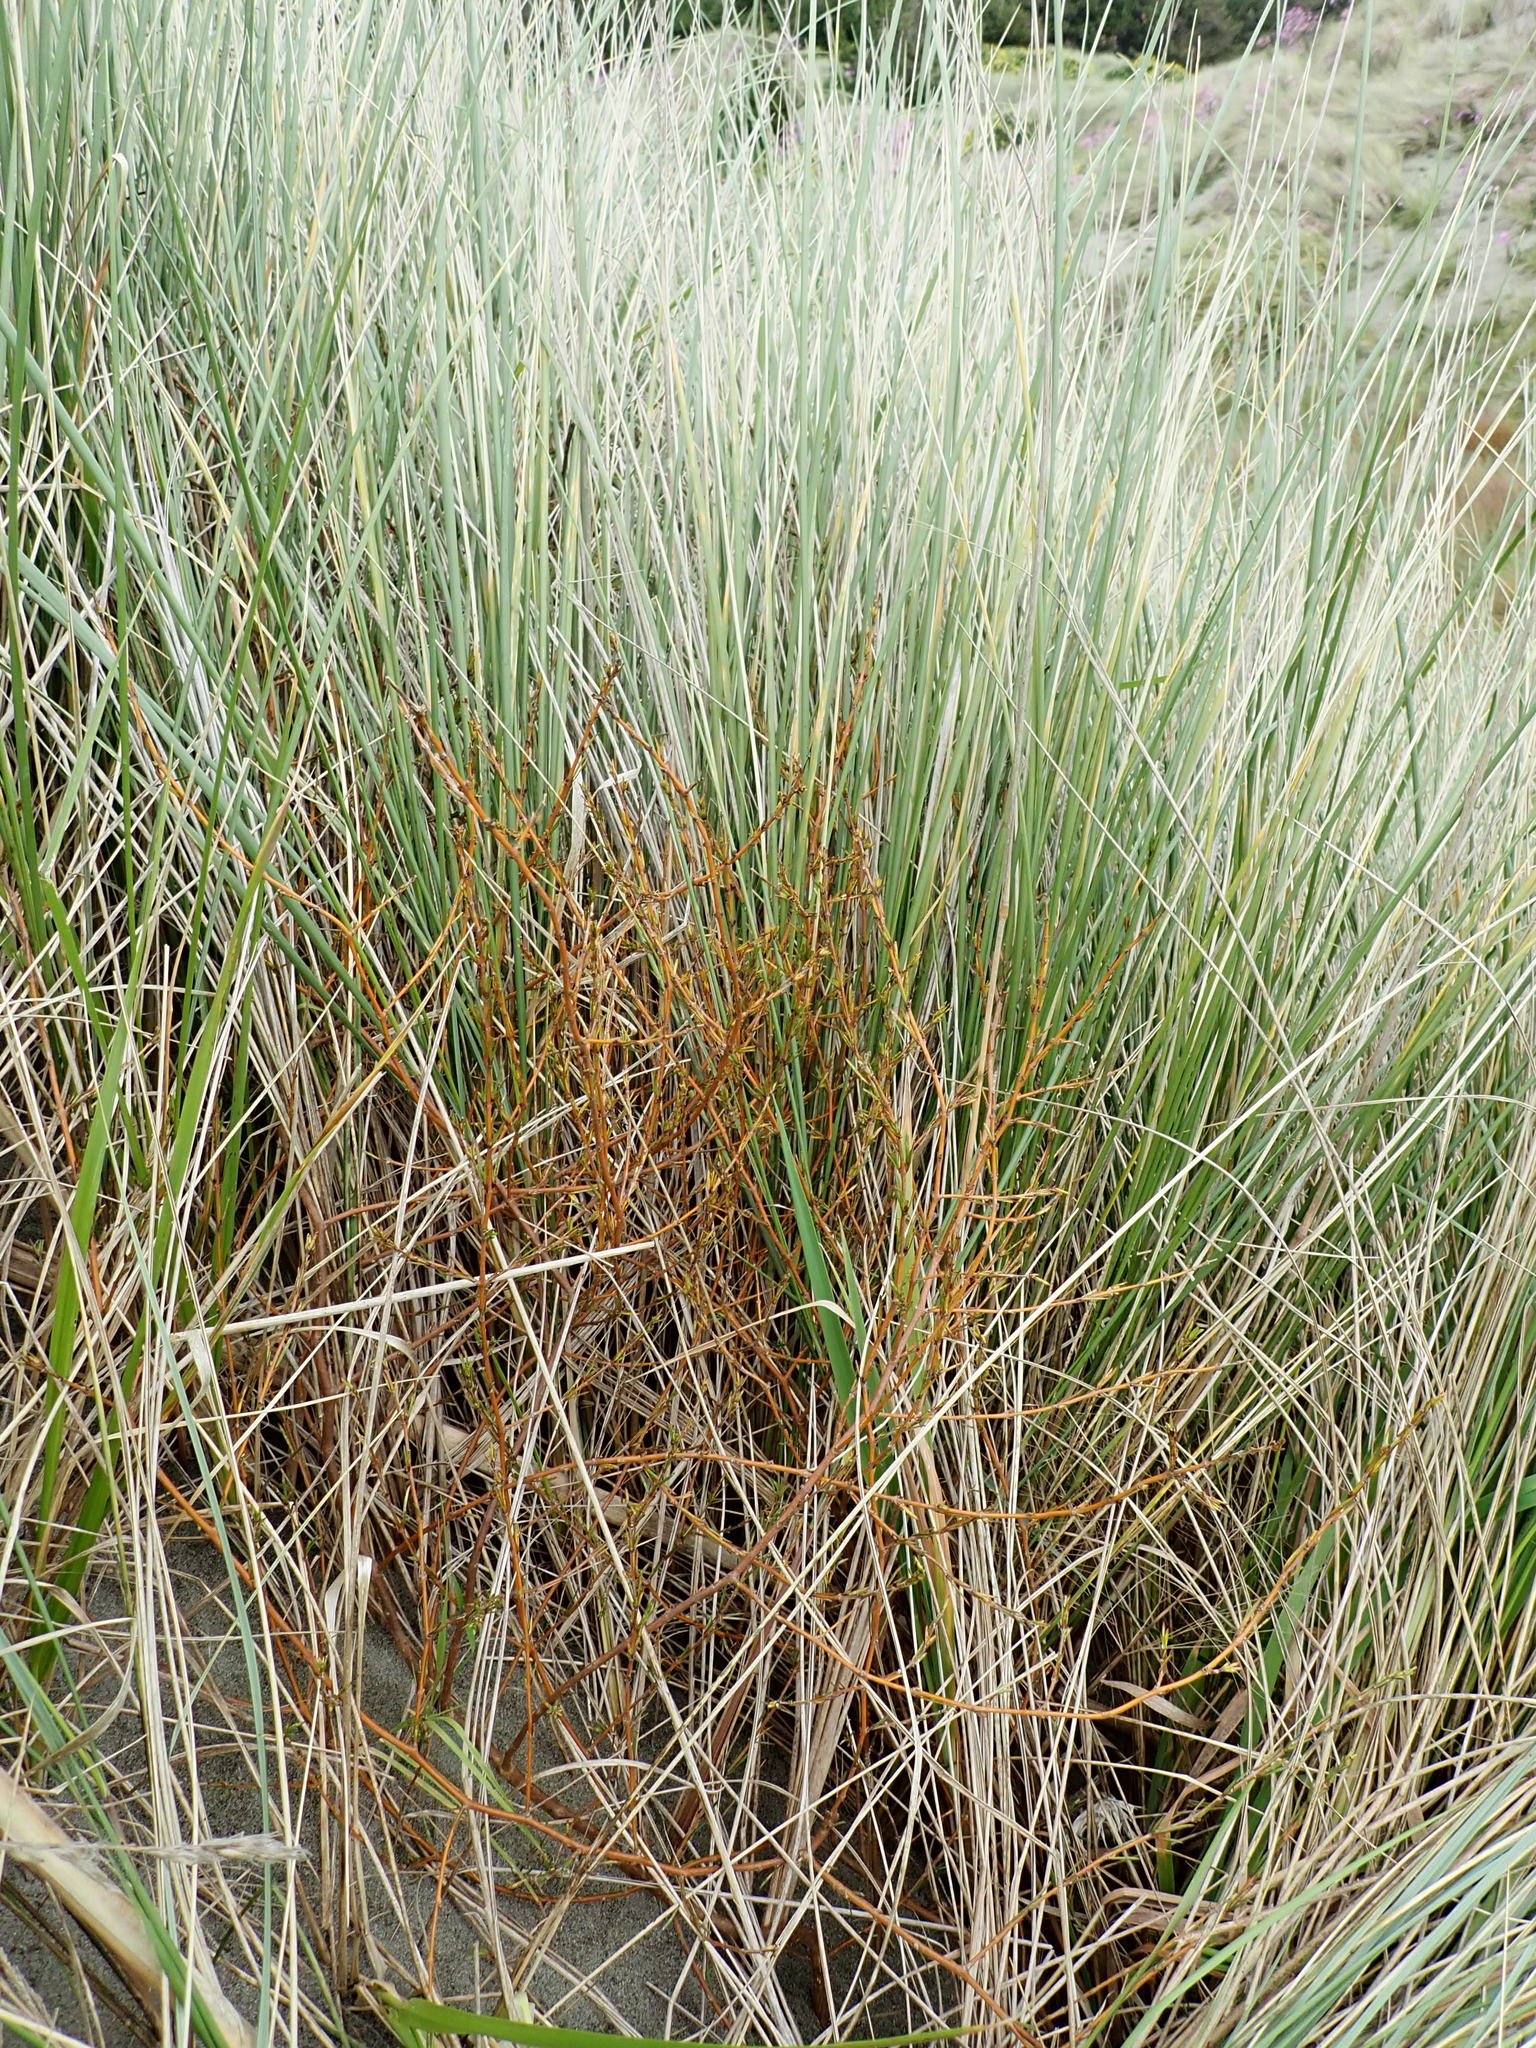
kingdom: Plantae
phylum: Tracheophyta
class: Magnoliopsida
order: Gentianales
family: Rubiaceae
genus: Coprosma
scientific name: Coprosma acerosa
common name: Sand coprosma
